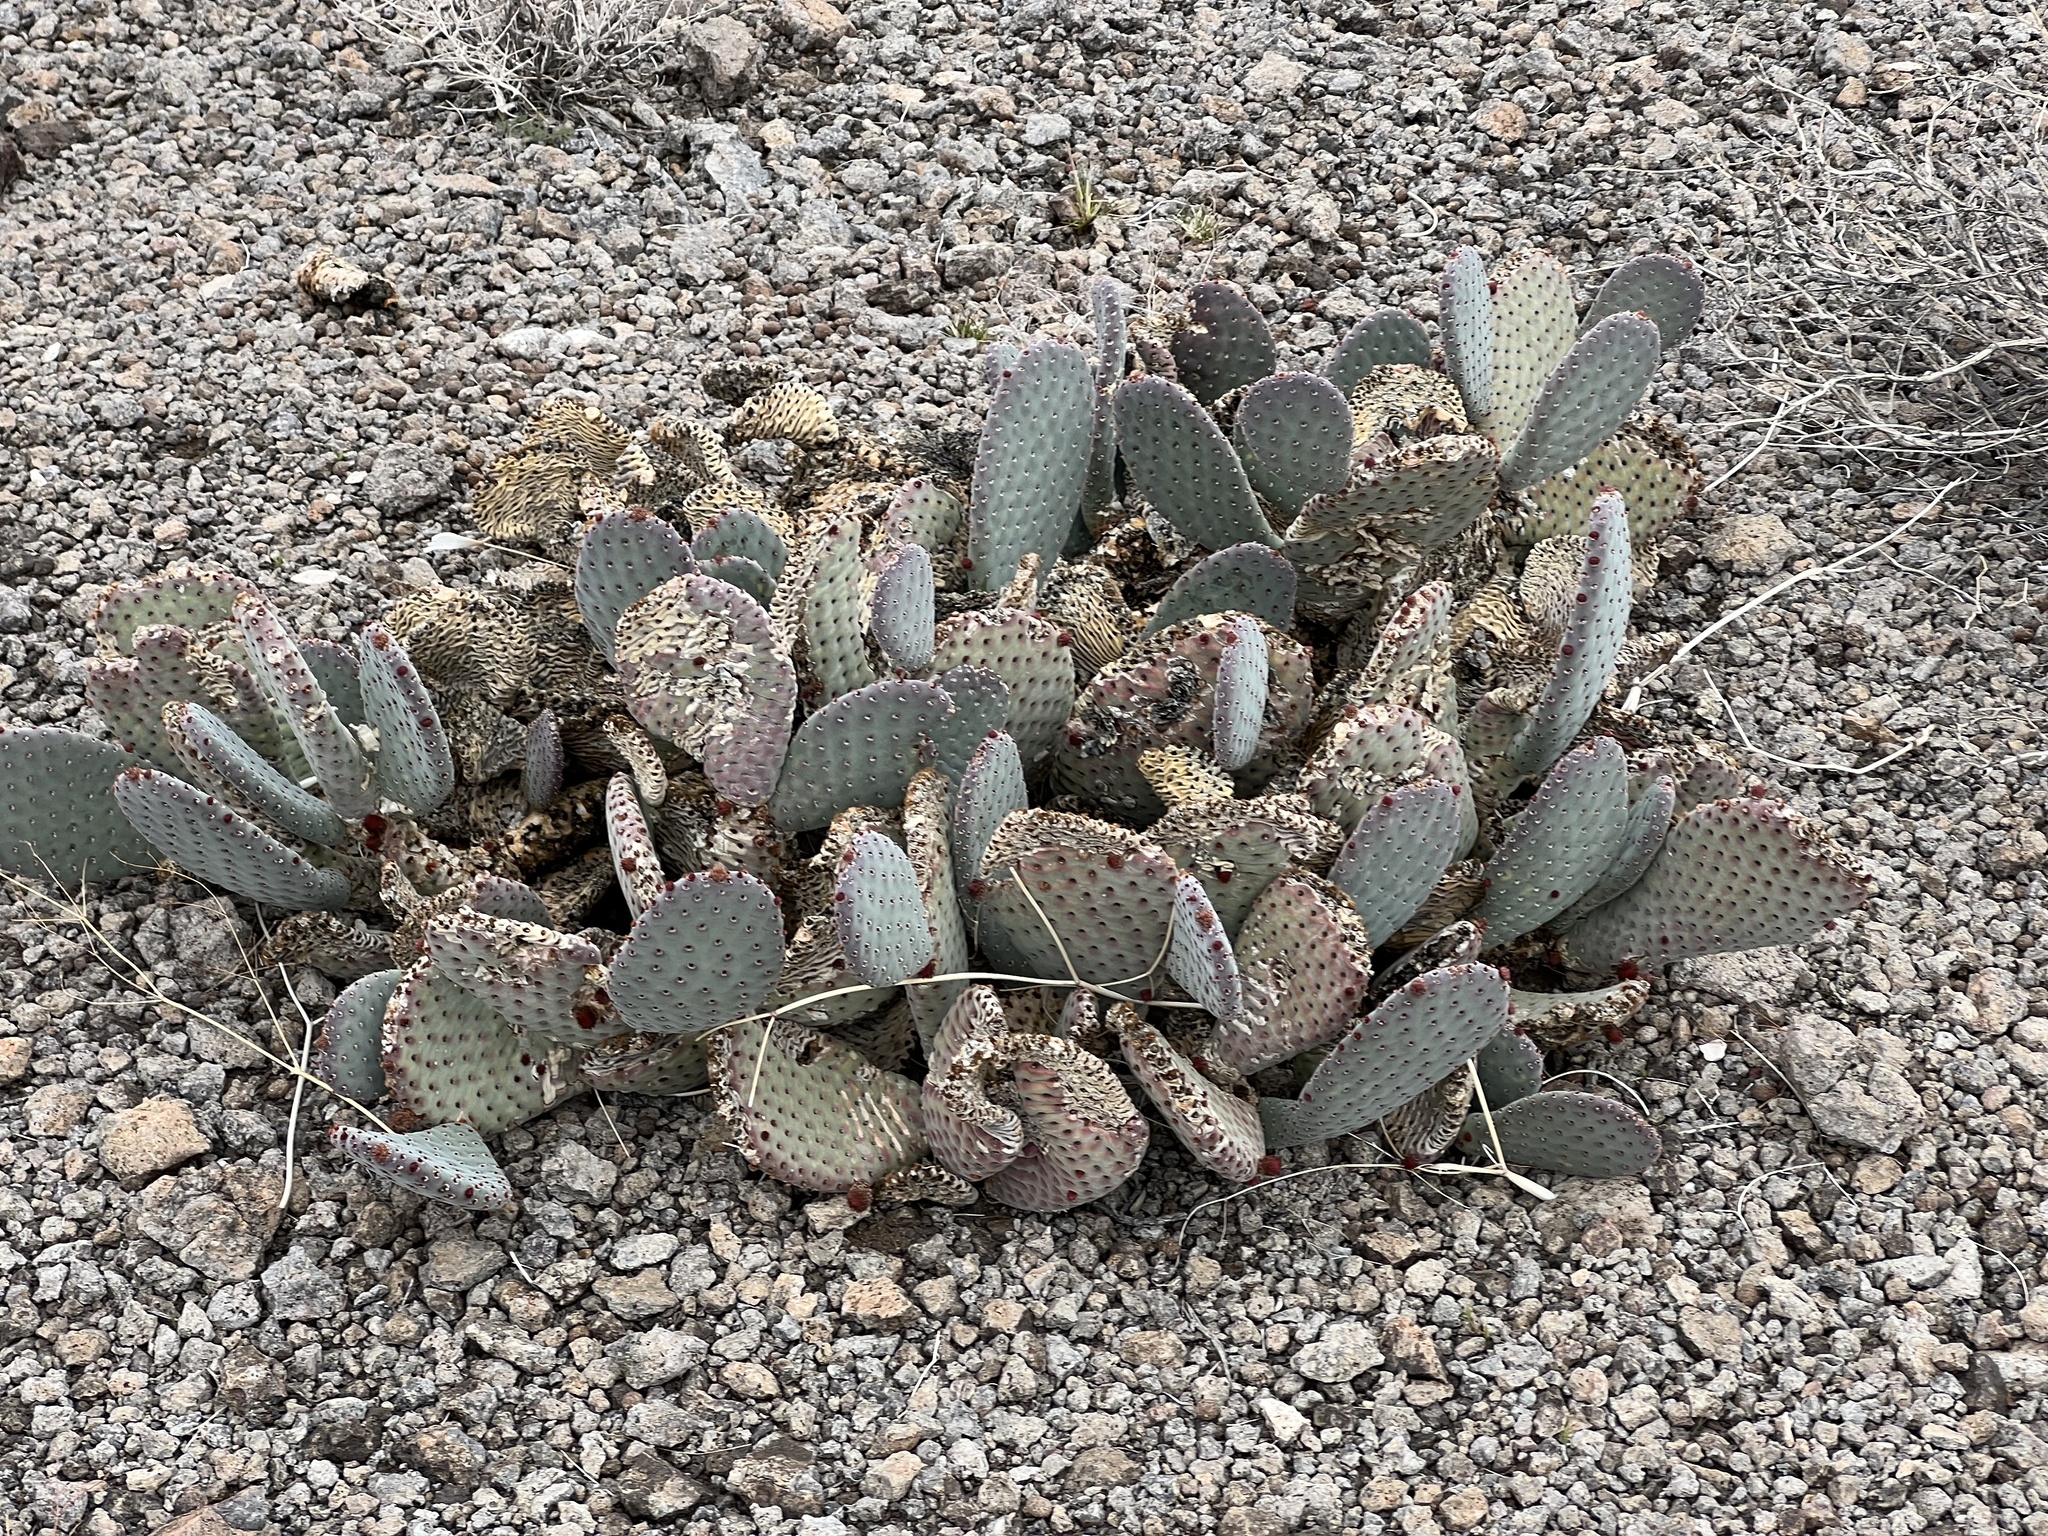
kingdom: Plantae
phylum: Tracheophyta
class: Magnoliopsida
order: Caryophyllales
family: Cactaceae
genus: Opuntia
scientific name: Opuntia basilaris
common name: Beavertail prickly-pear
